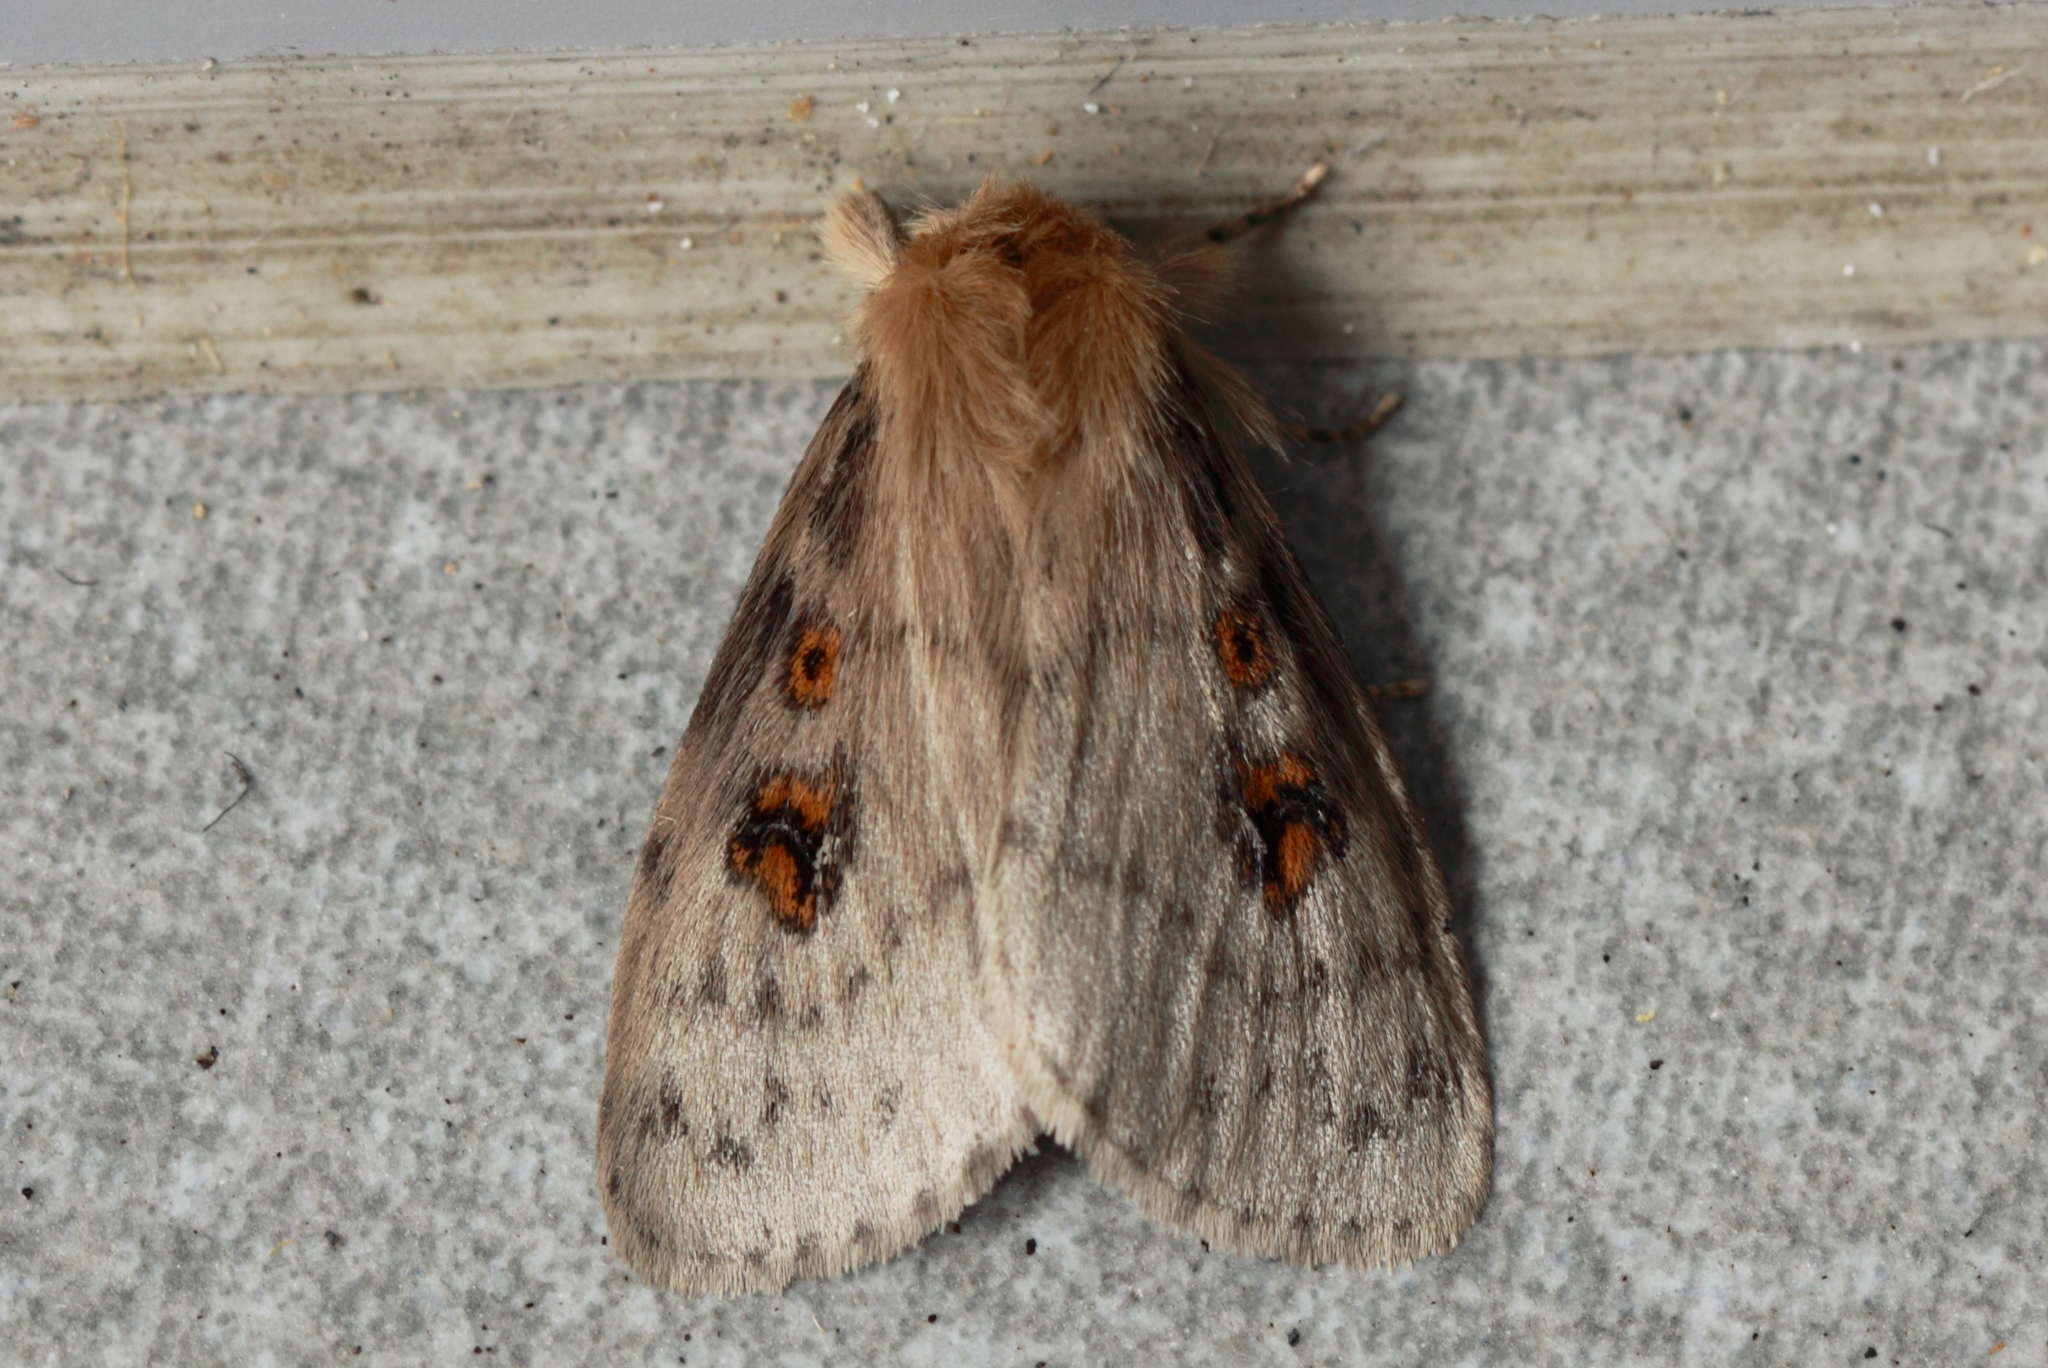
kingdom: Animalia
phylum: Arthropoda
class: Insecta
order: Lepidoptera
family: Erebidae
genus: Leptocneria
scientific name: Leptocneria reducta
